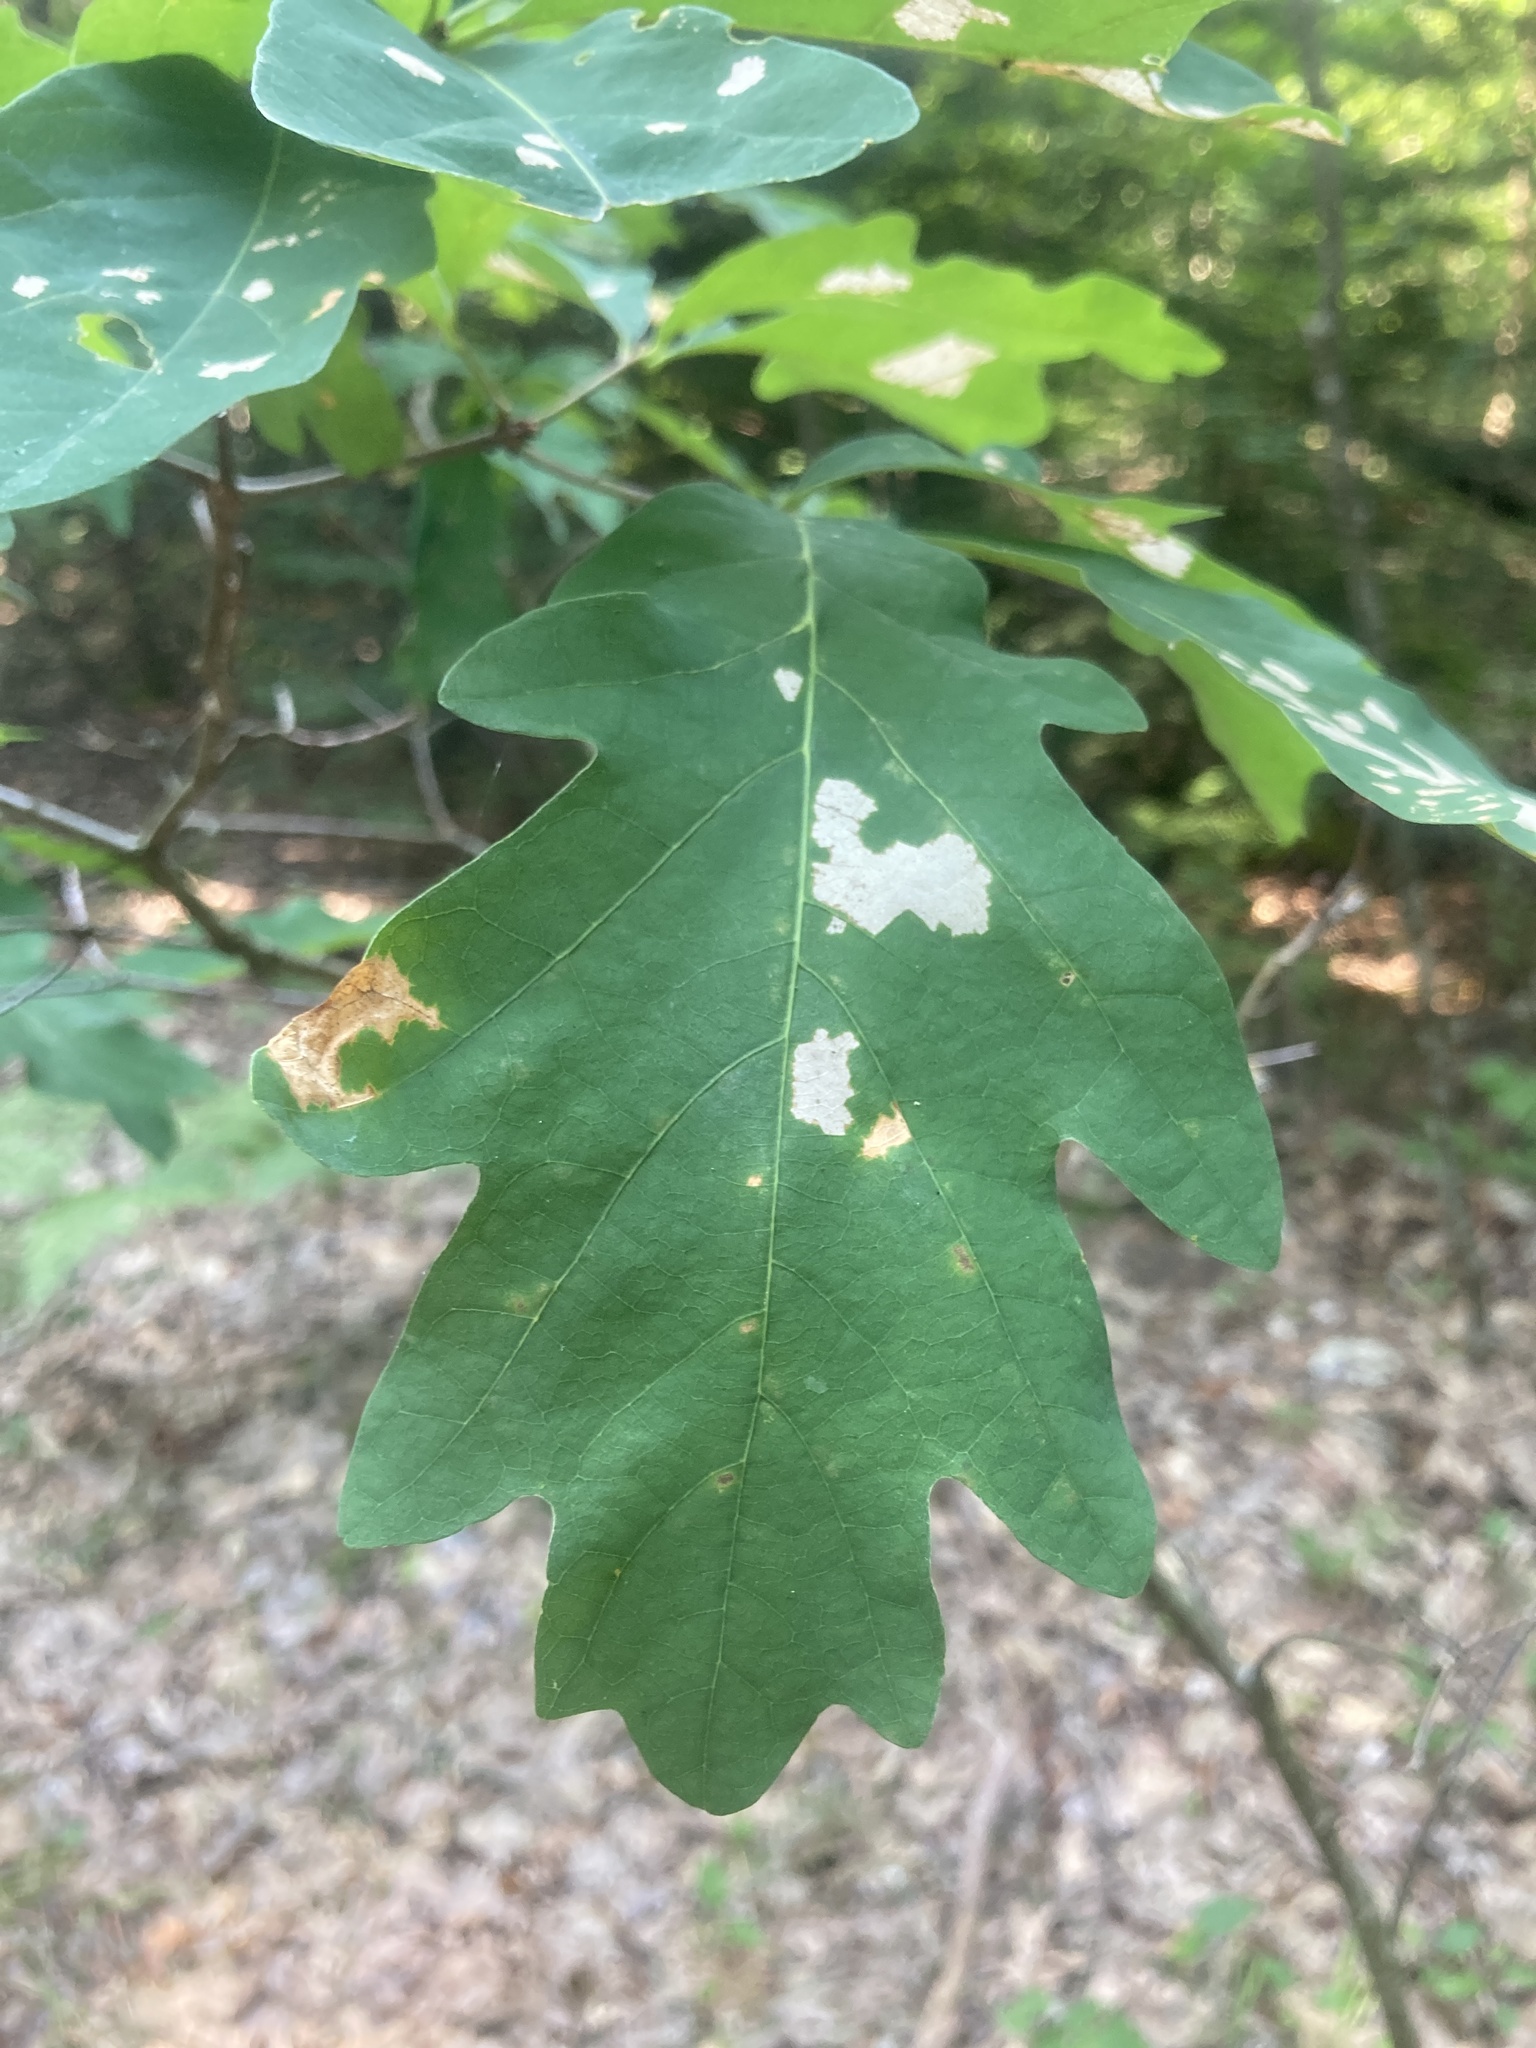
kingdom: Plantae
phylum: Tracheophyta
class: Magnoliopsida
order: Fagales
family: Fagaceae
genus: Quercus
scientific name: Quercus alba
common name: White oak
